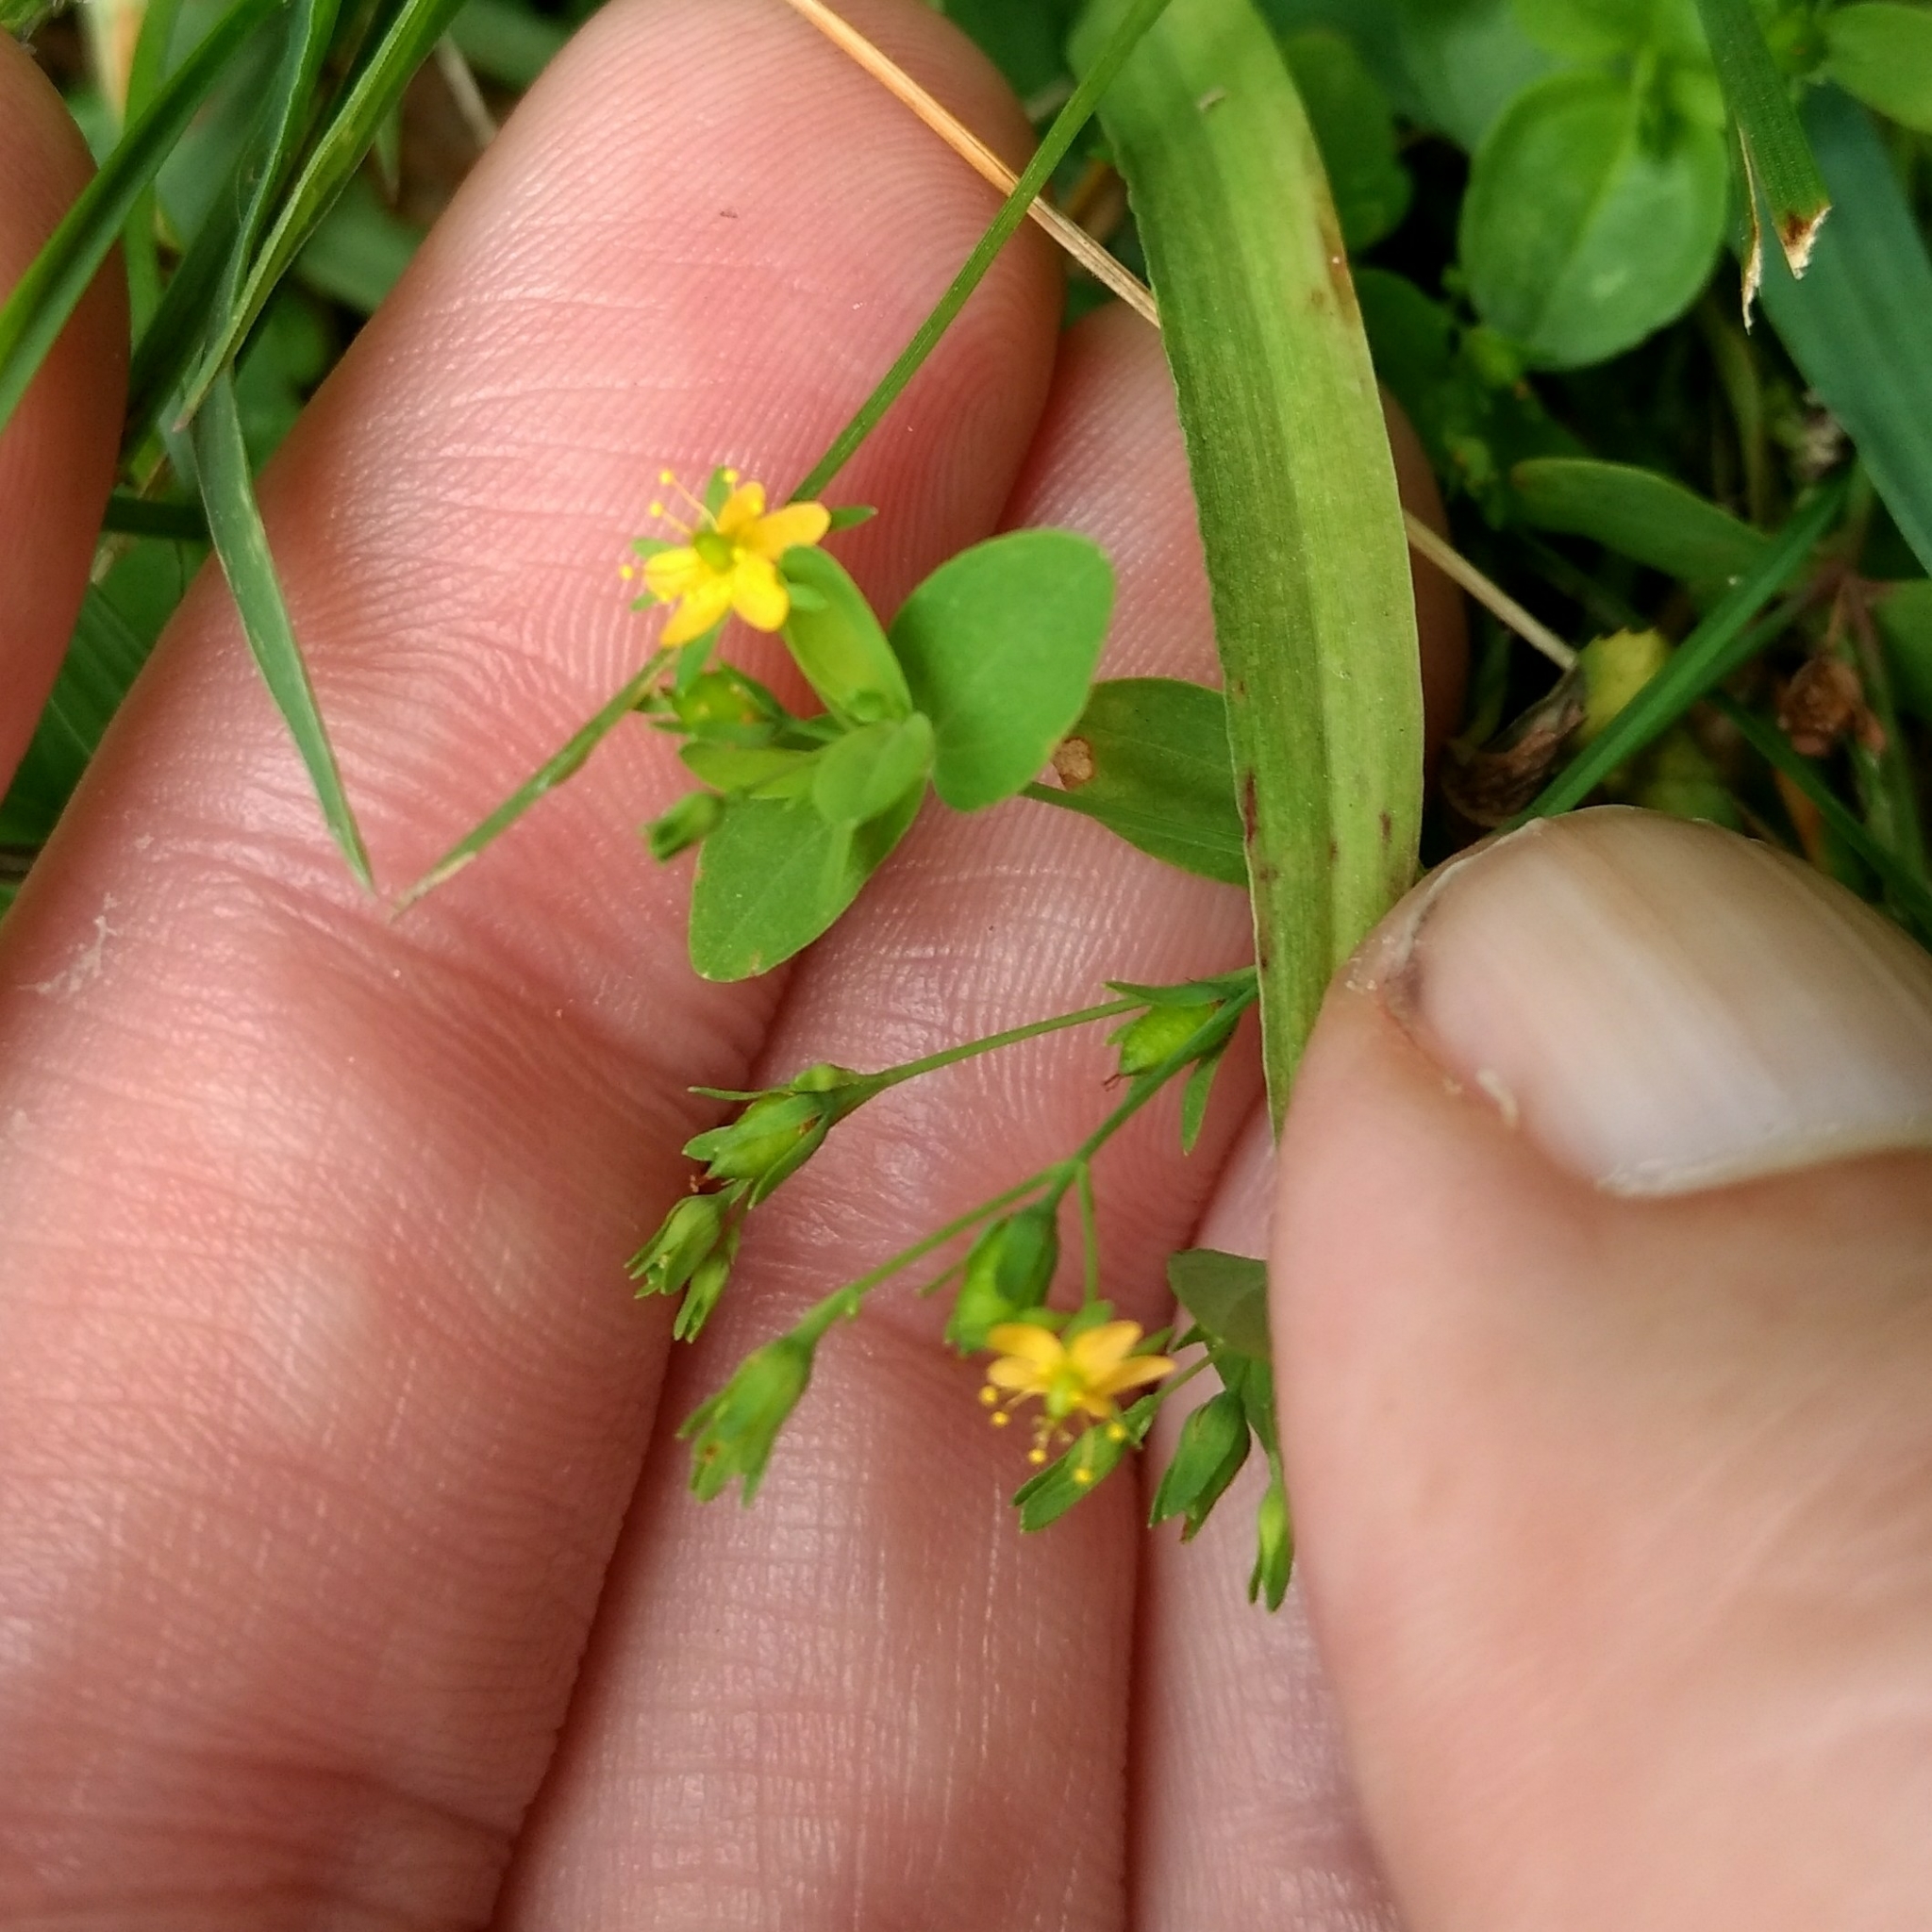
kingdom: Plantae
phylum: Tracheophyta
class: Magnoliopsida
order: Malpighiales
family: Hypericaceae
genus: Hypericum
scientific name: Hypericum mutilum
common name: Dwarf st. john's-wort
